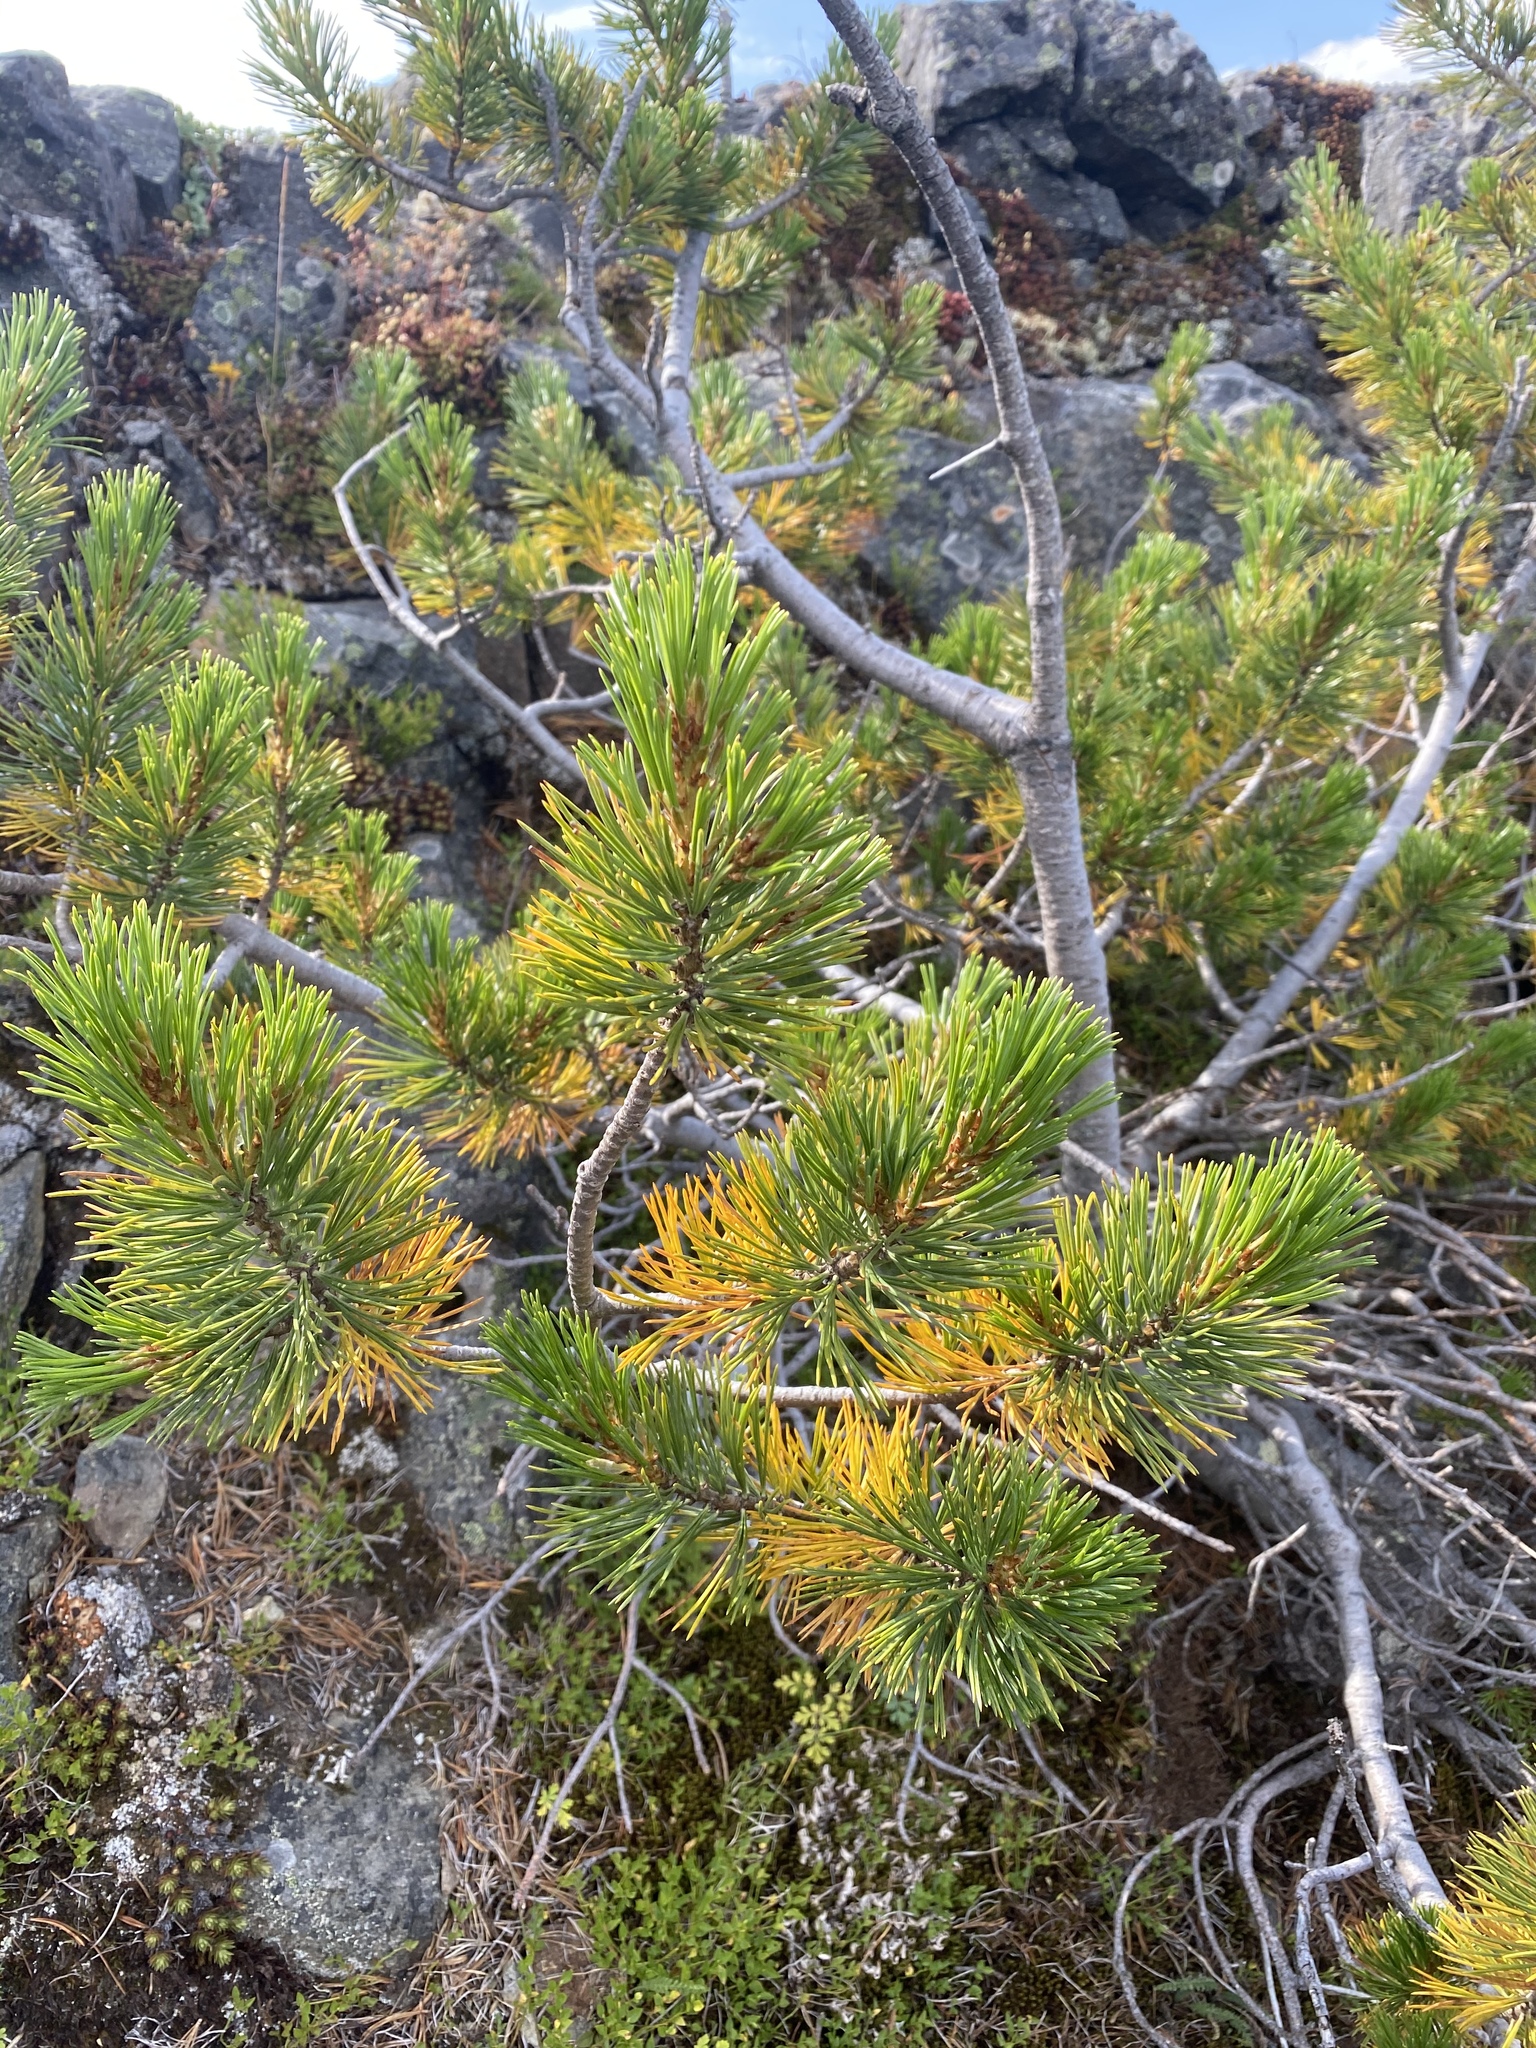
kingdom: Plantae
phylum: Tracheophyta
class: Pinopsida
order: Pinales
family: Pinaceae
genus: Pinus
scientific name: Pinus albicaulis
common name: Whitebark pine
